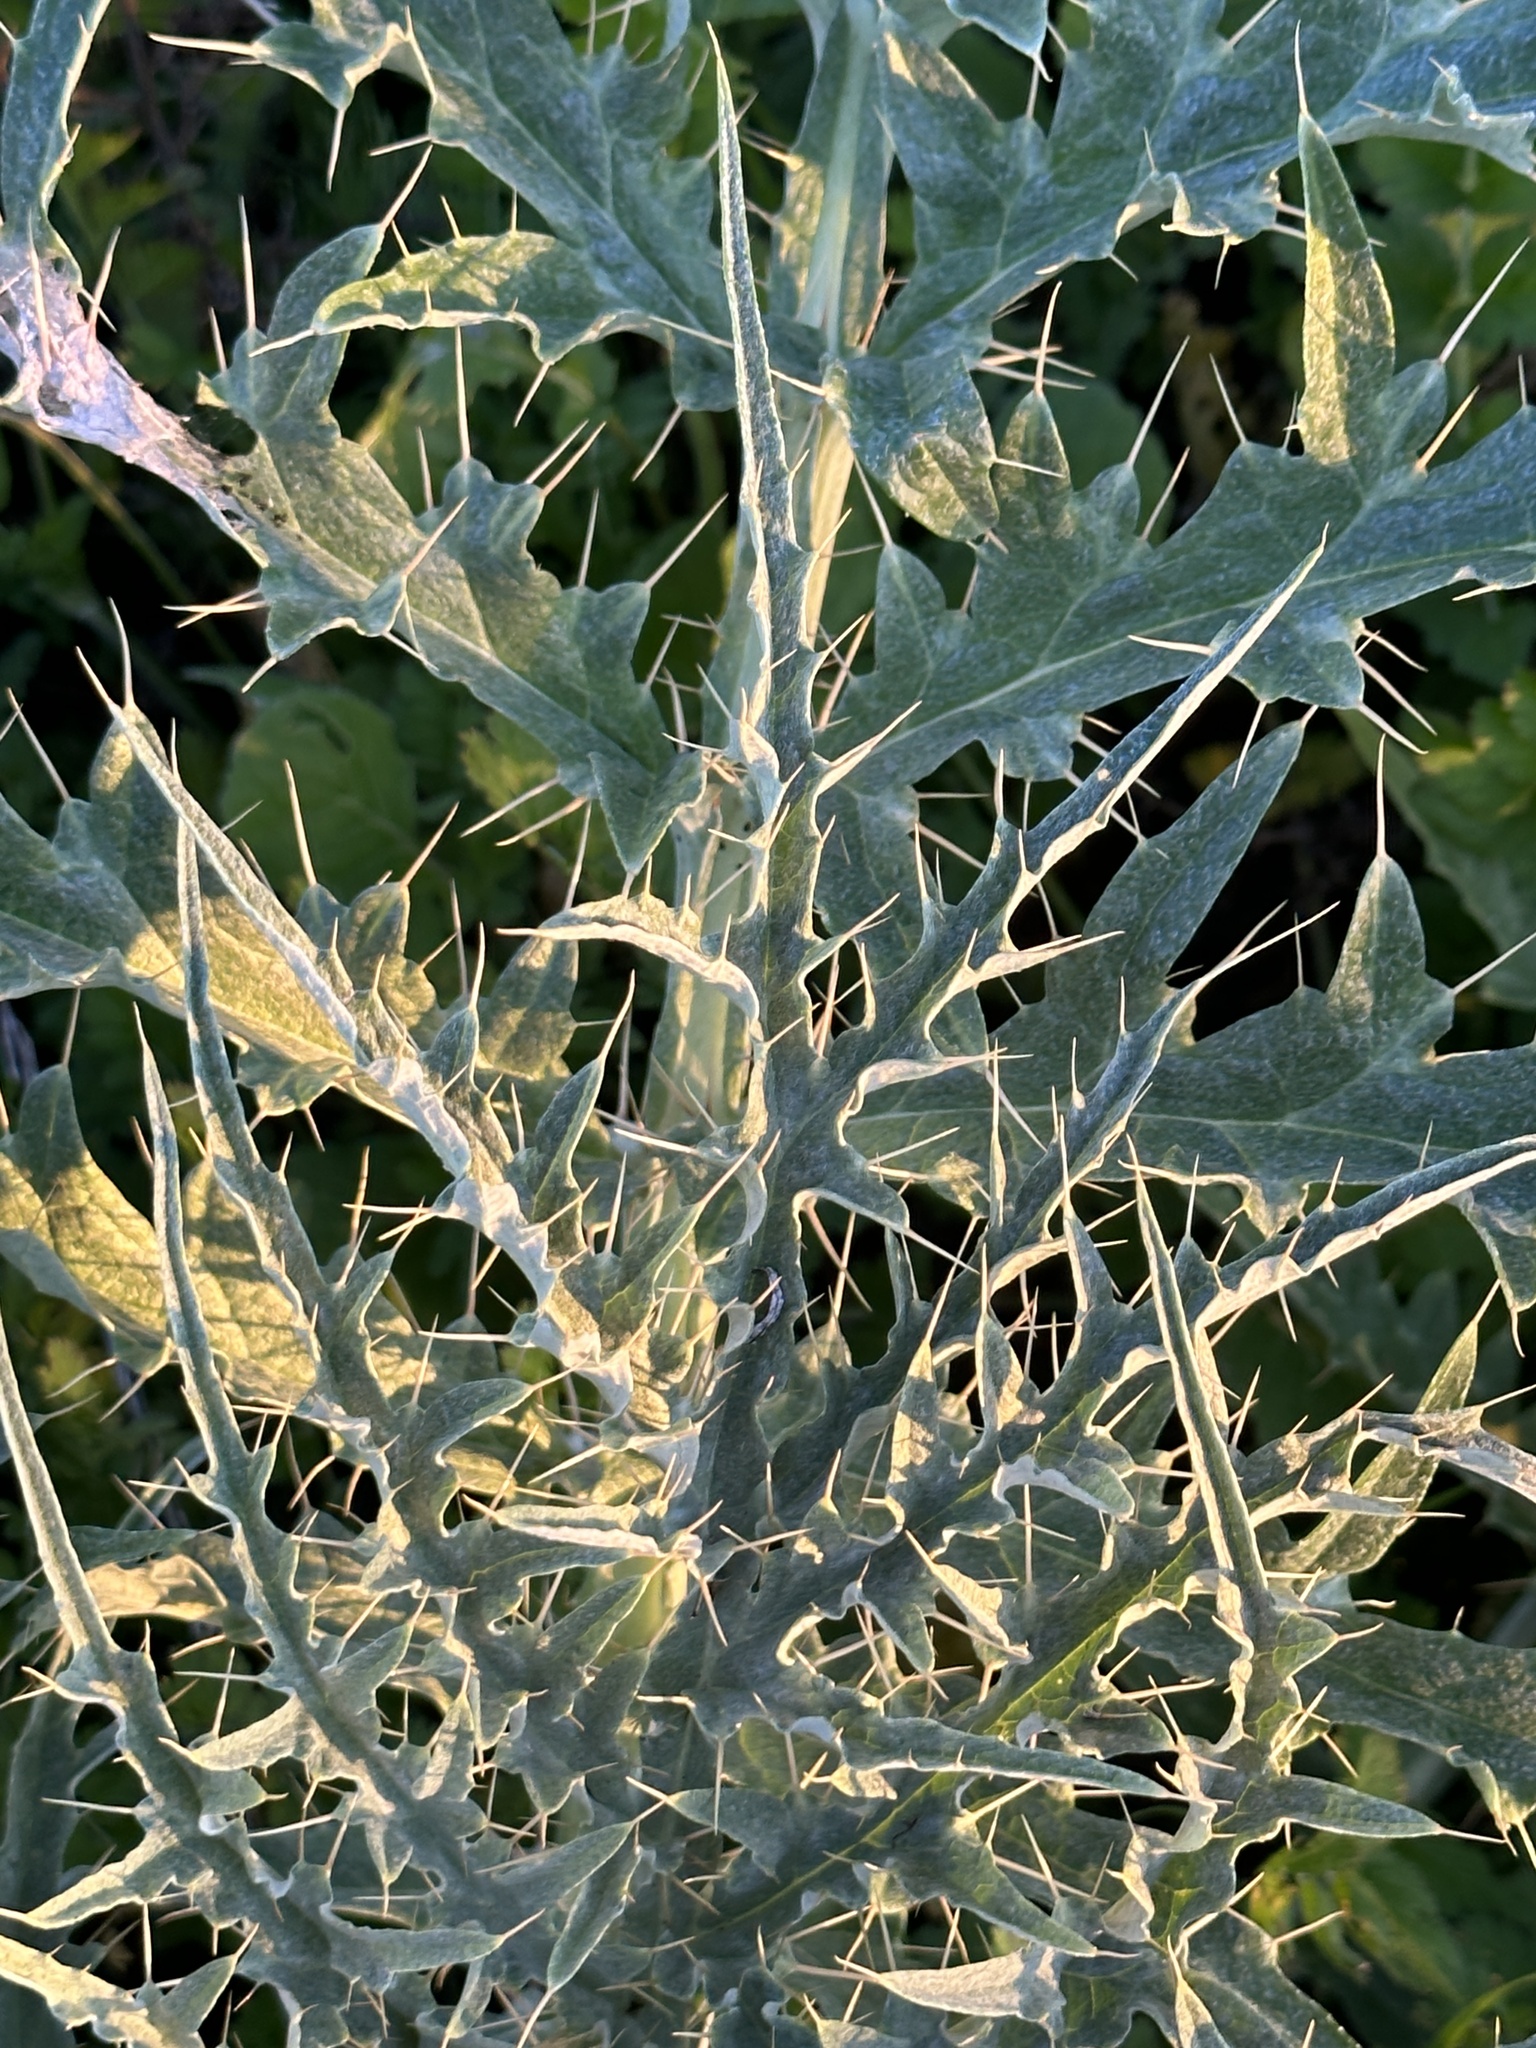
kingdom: Plantae
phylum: Tracheophyta
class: Magnoliopsida
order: Asterales
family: Asteraceae
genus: Cynara
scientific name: Cynara cardunculus
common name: Globe artichoke
